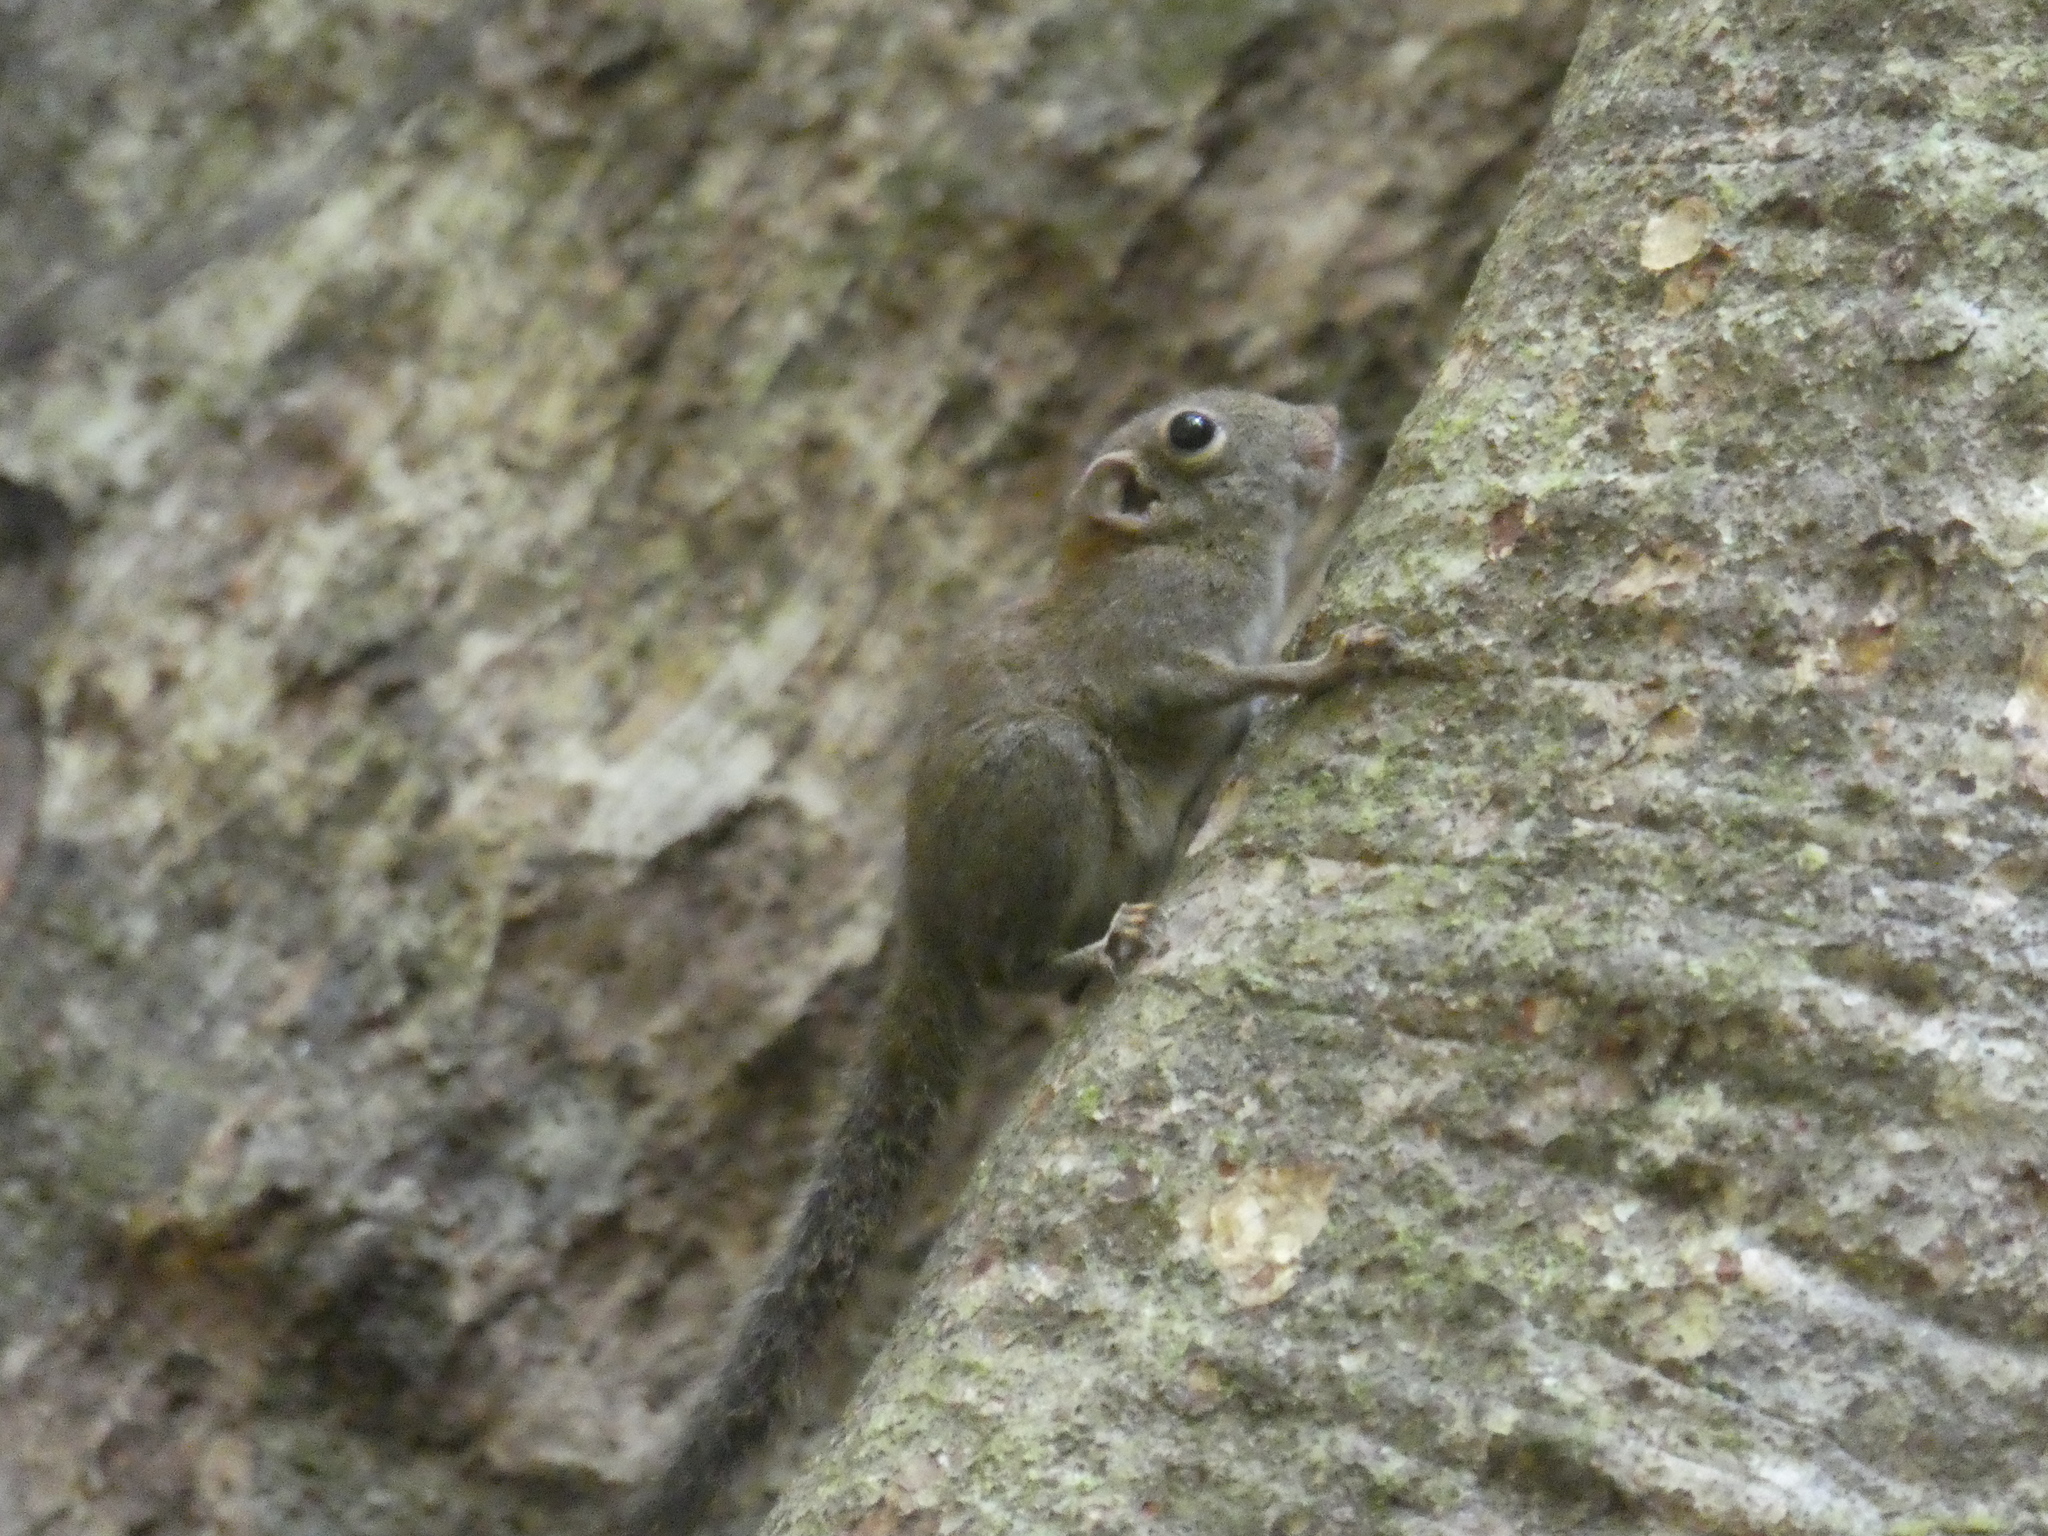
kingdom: Animalia
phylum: Chordata
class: Mammalia
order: Rodentia
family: Sciuridae
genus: Exilisciurus
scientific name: Exilisciurus exilis
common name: Least pygmy squirrel
